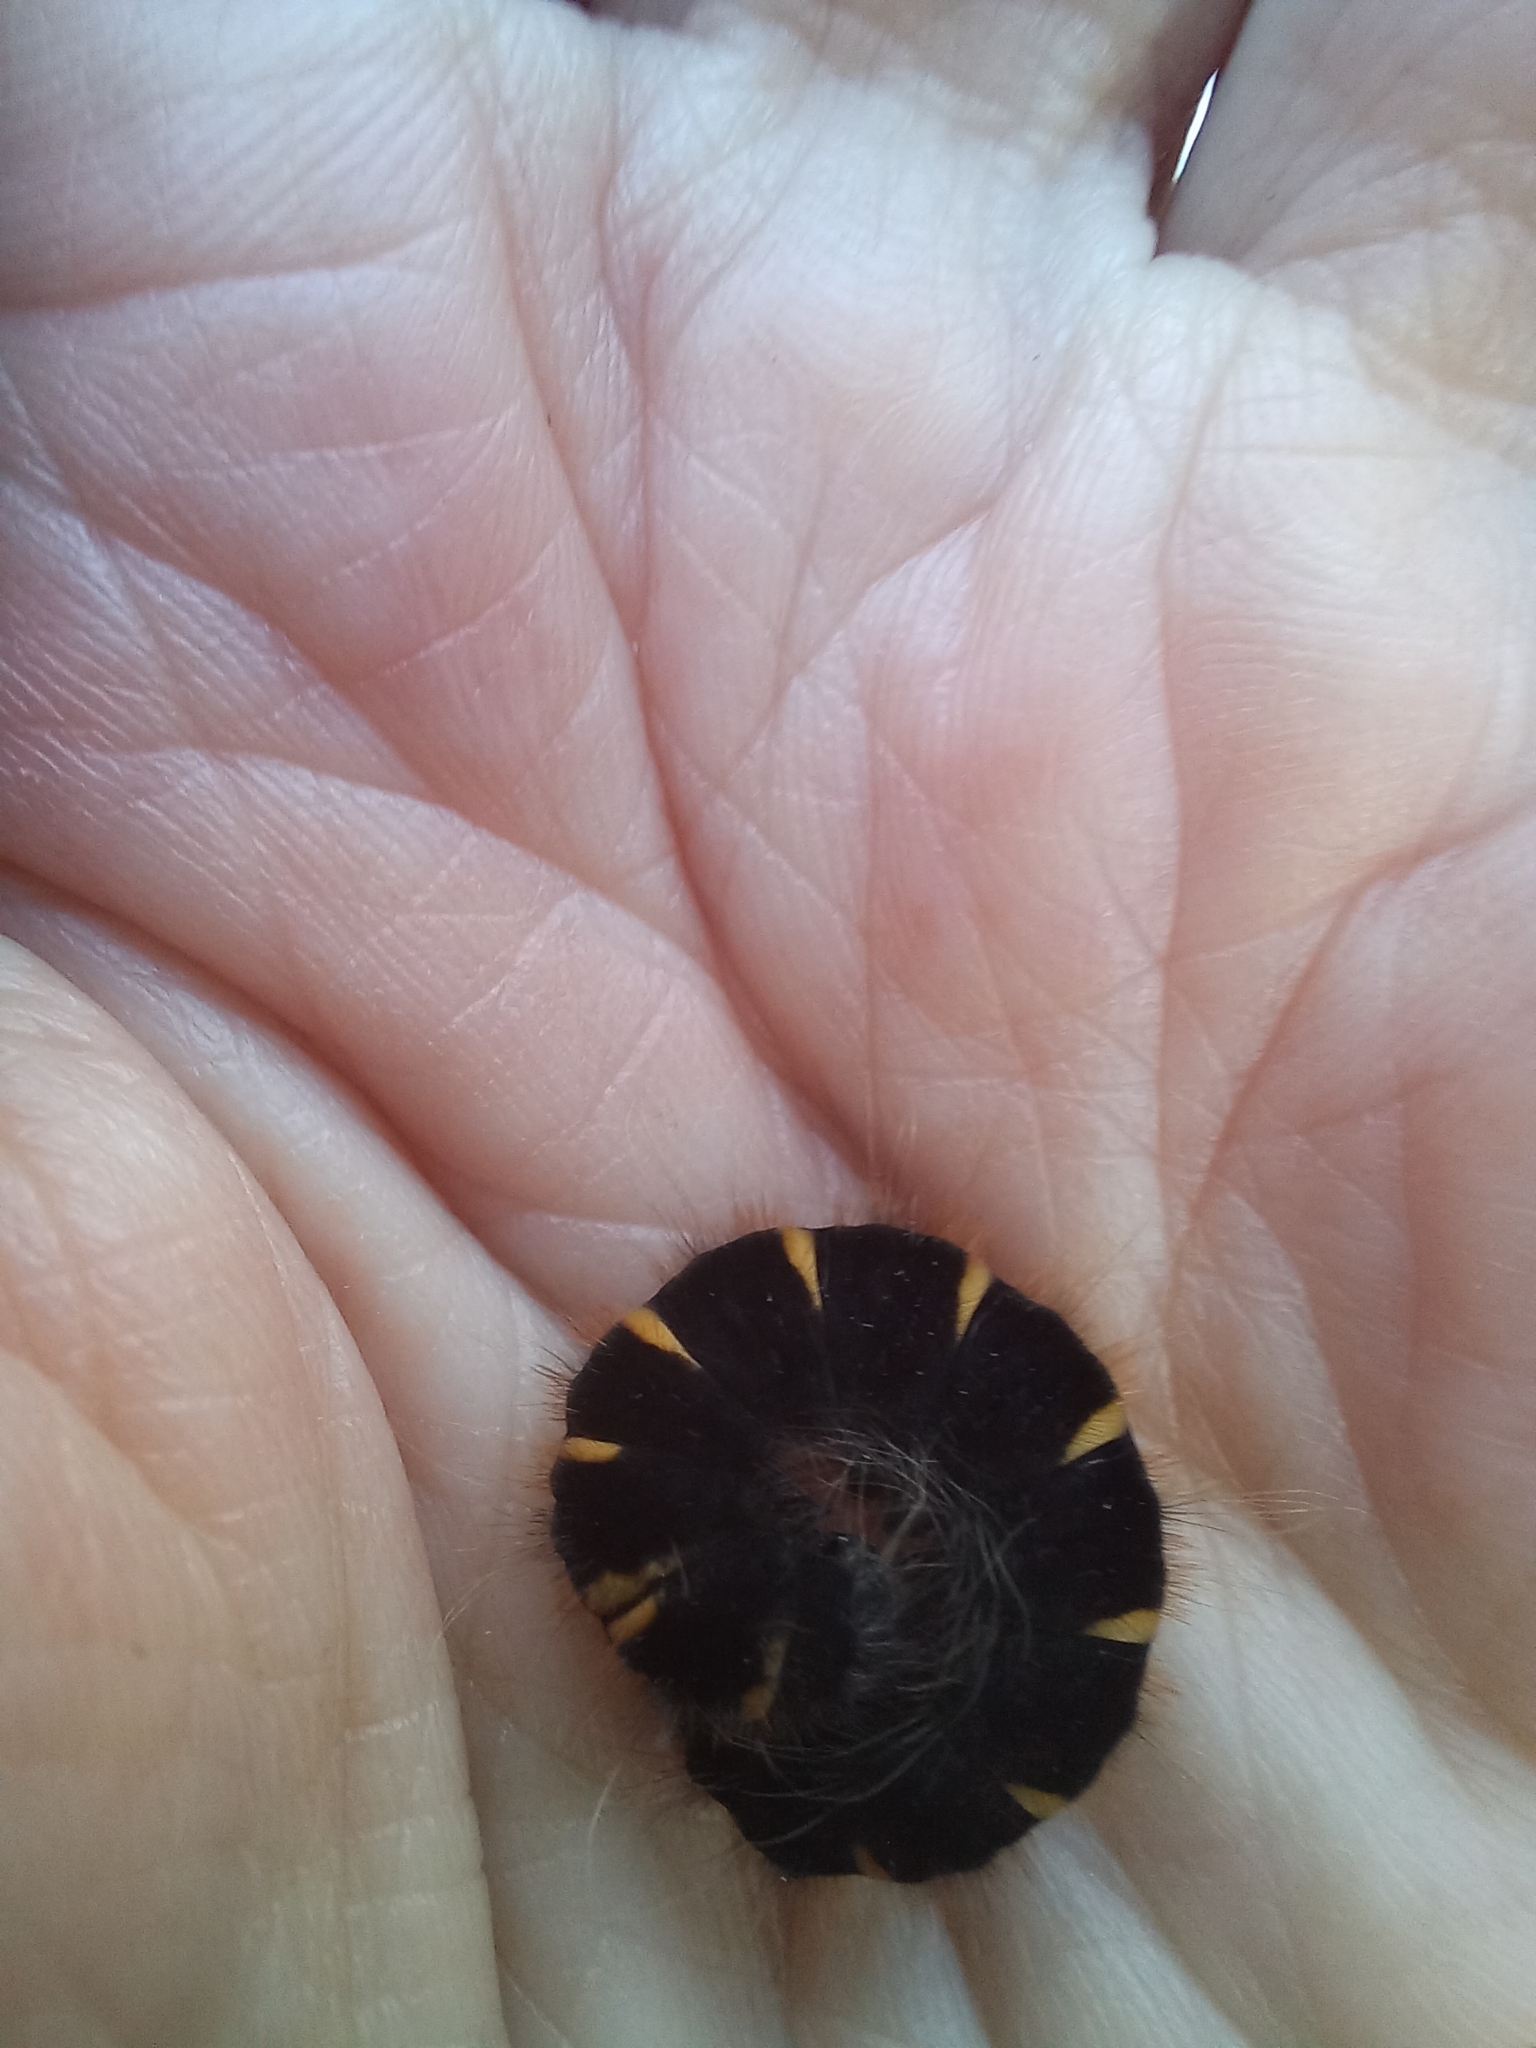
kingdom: Animalia
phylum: Arthropoda
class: Insecta
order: Lepidoptera
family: Lasiocampidae
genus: Macrothylacia
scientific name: Macrothylacia rubi
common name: Fox moth
